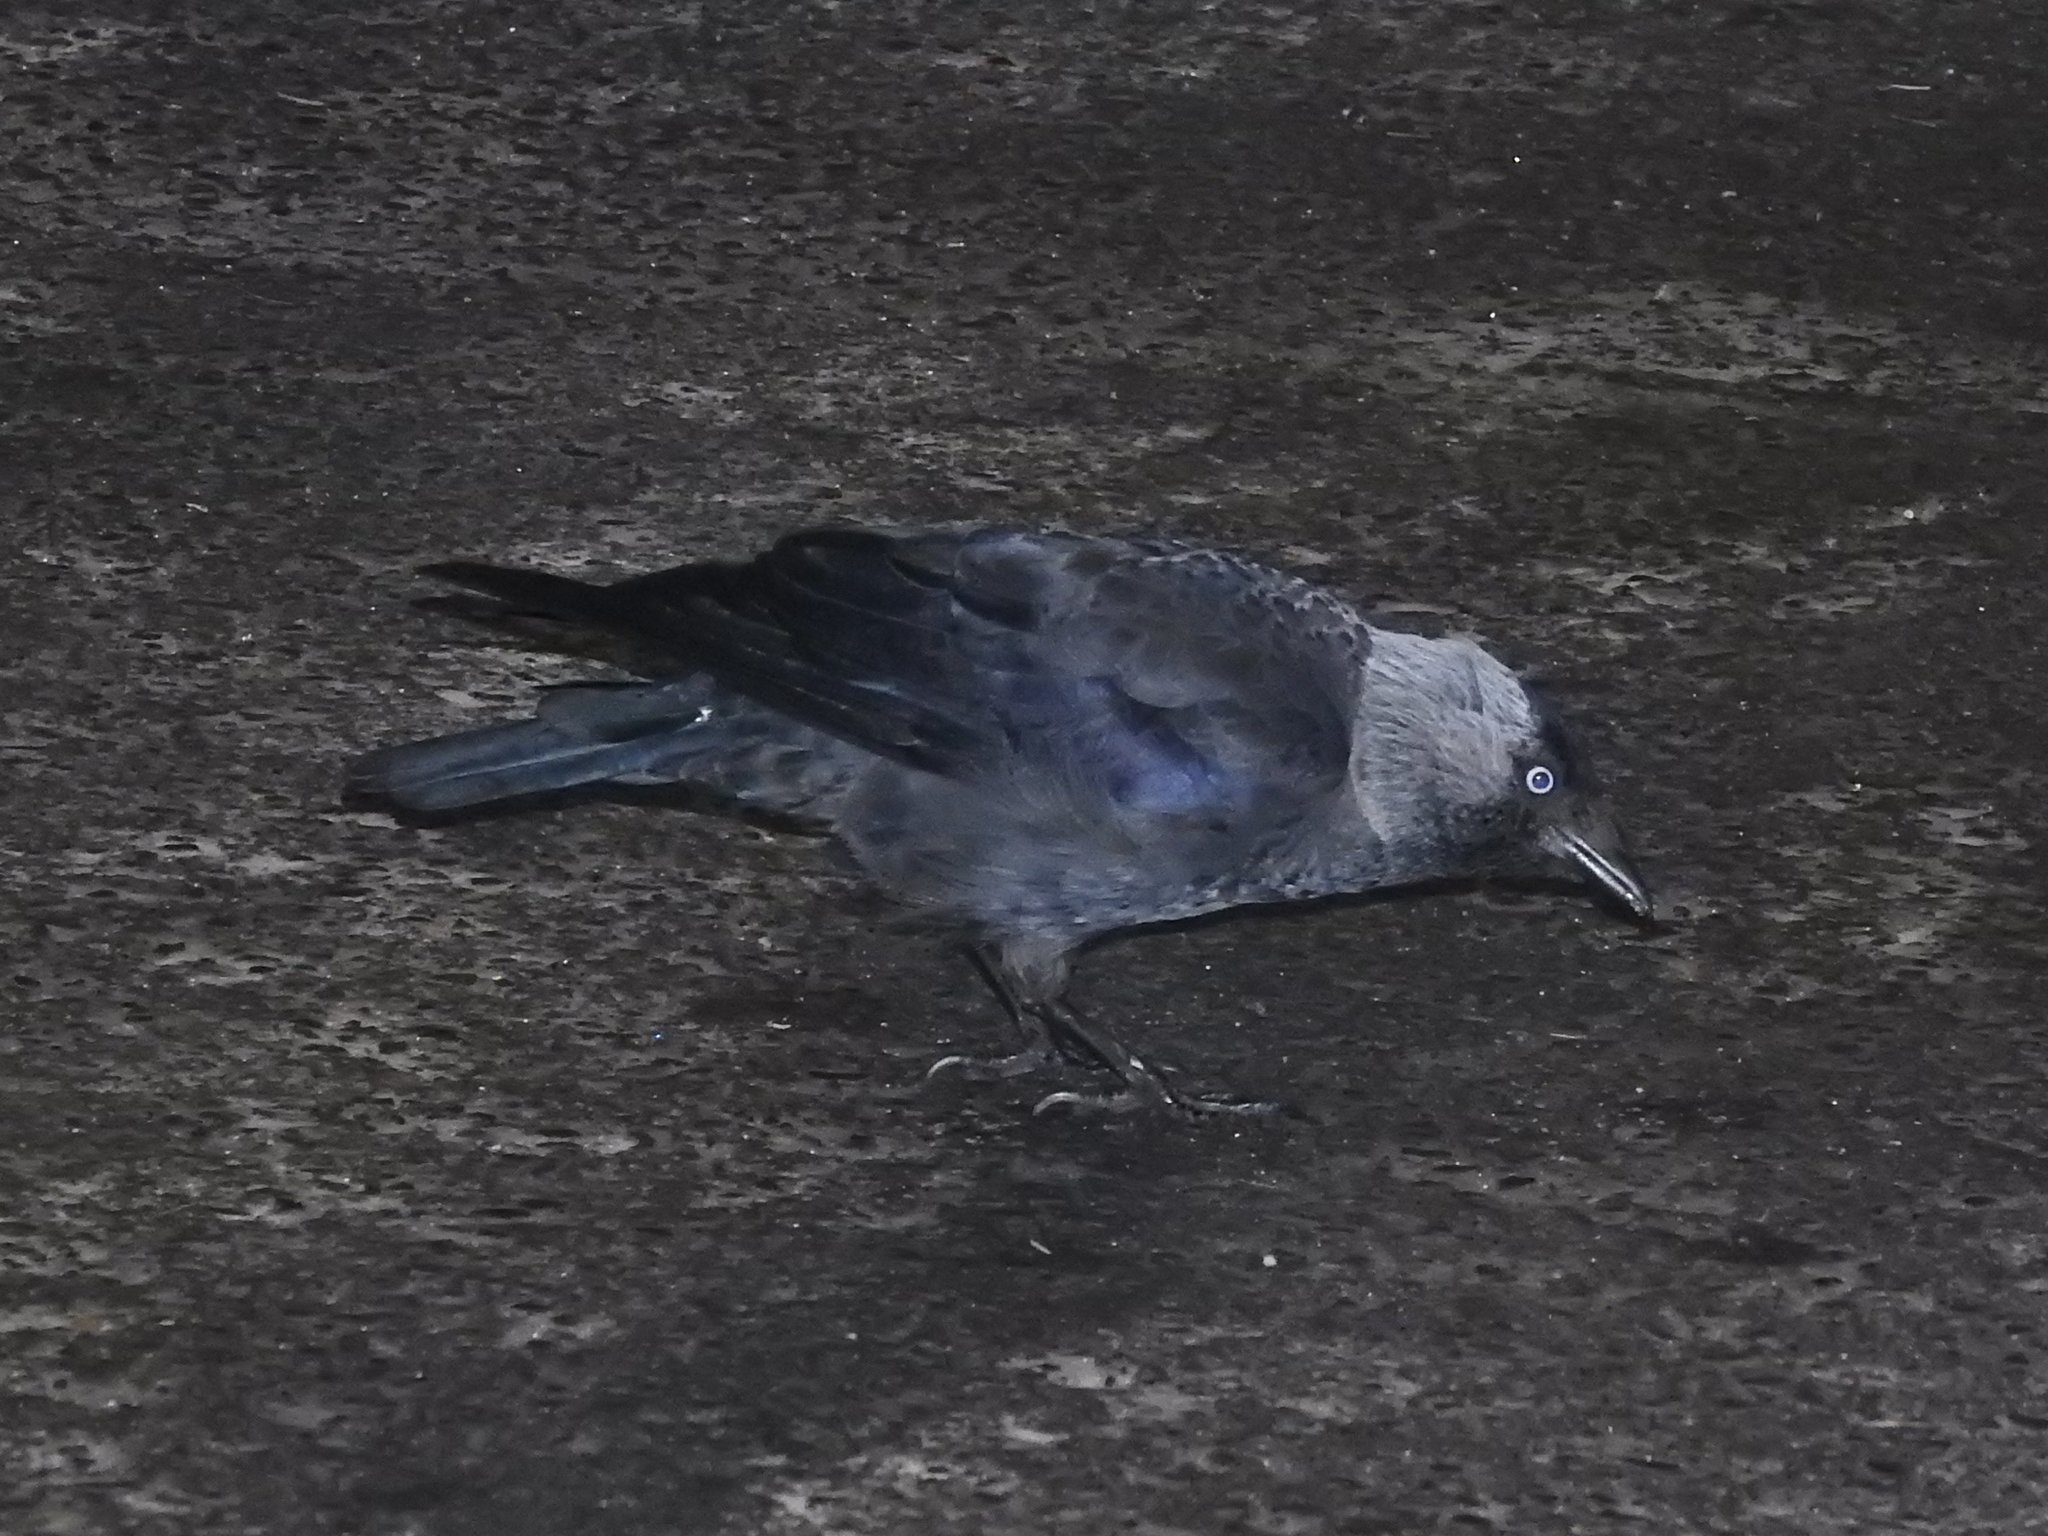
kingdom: Animalia
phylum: Chordata
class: Aves
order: Passeriformes
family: Corvidae
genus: Coloeus
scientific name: Coloeus monedula
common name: Western jackdaw
